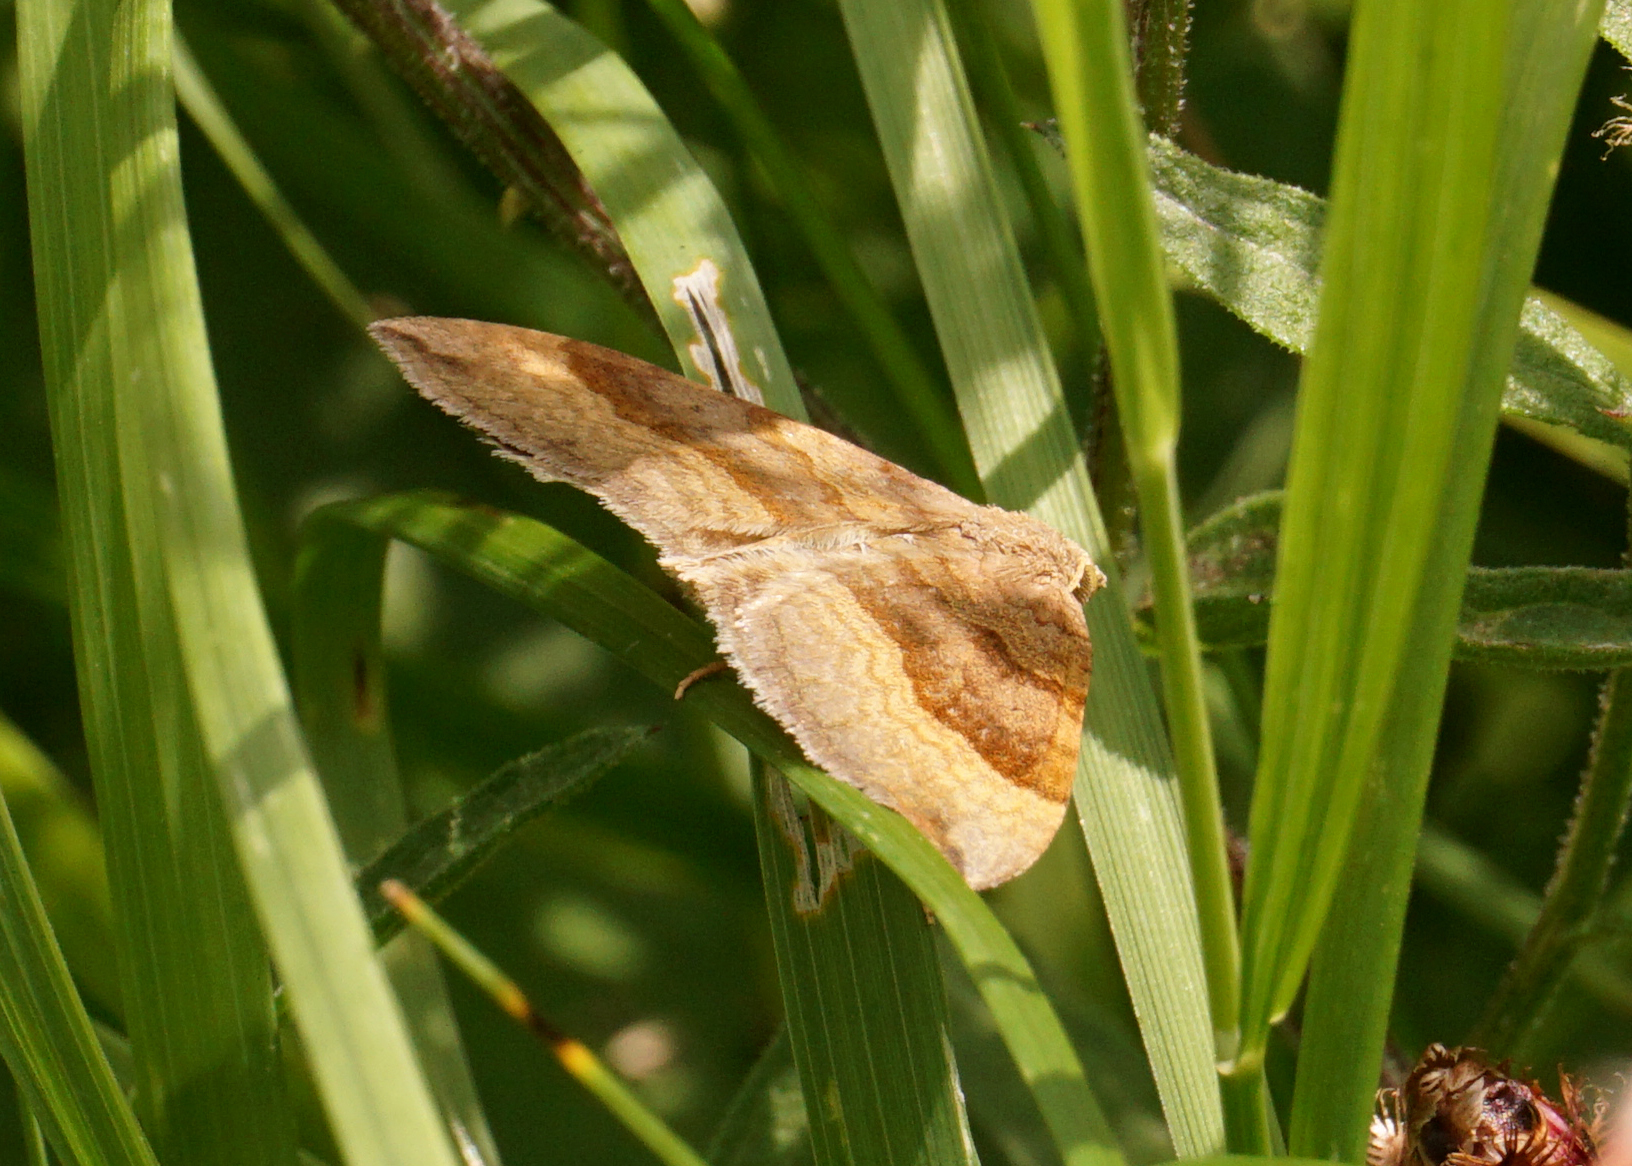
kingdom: Animalia
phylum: Arthropoda
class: Insecta
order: Lepidoptera
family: Geometridae
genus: Scotopteryx
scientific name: Scotopteryx chenopodiata
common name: Shaded broad-bar
